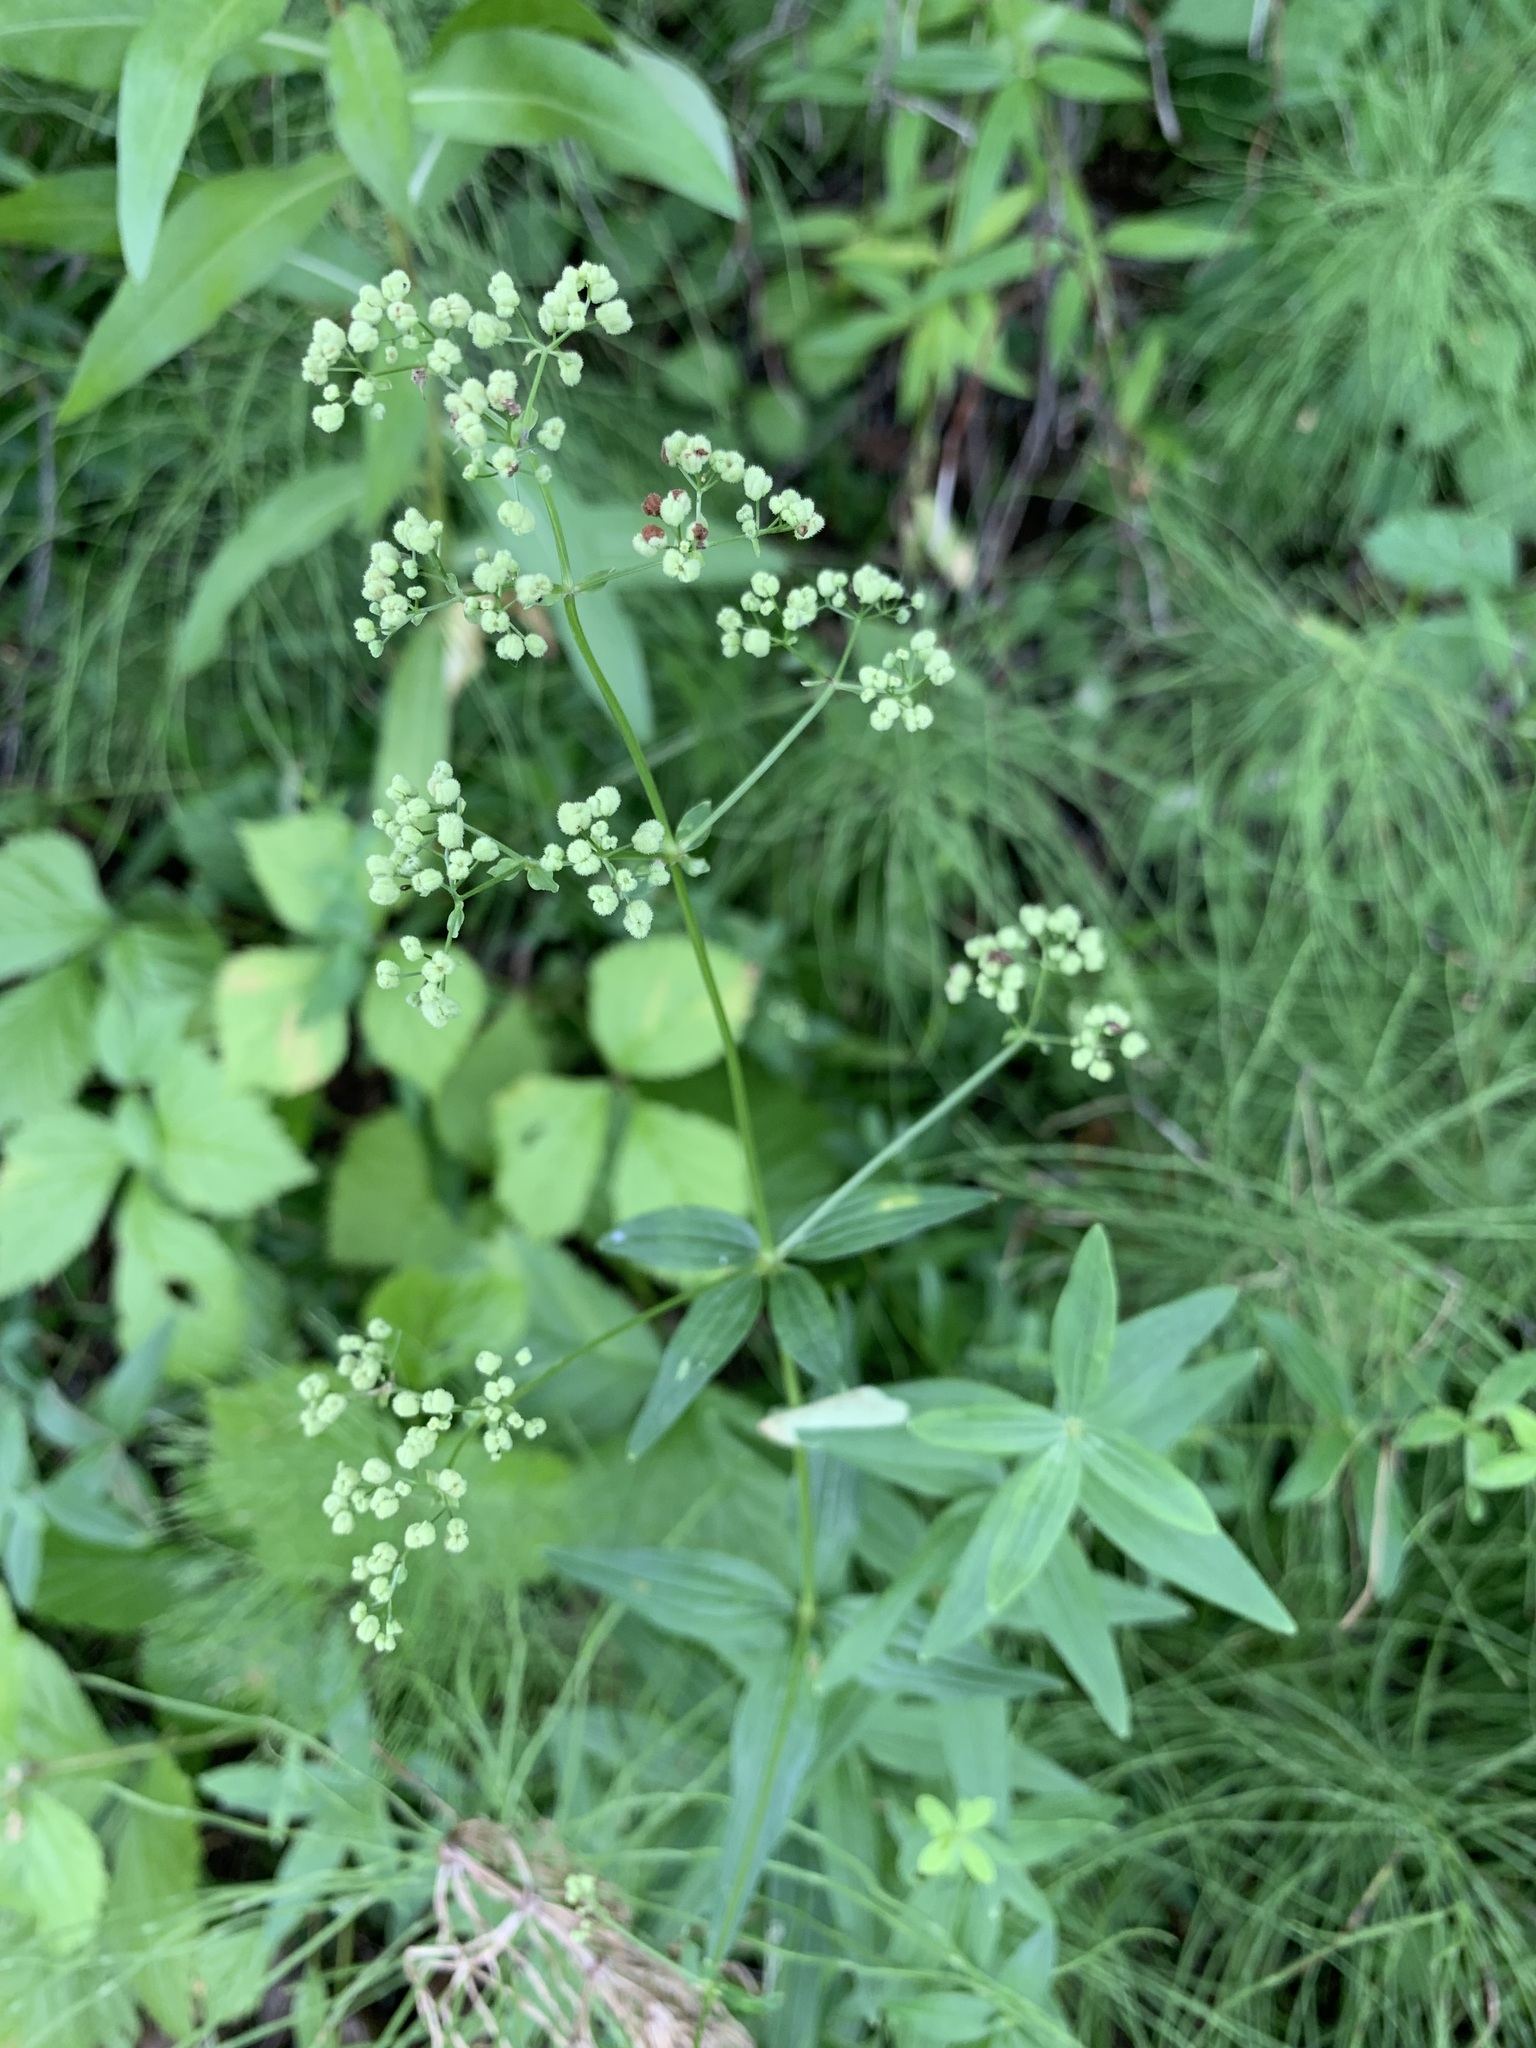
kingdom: Plantae
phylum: Tracheophyta
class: Magnoliopsida
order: Gentianales
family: Rubiaceae
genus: Galium
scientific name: Galium boreale
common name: Northern bedstraw
